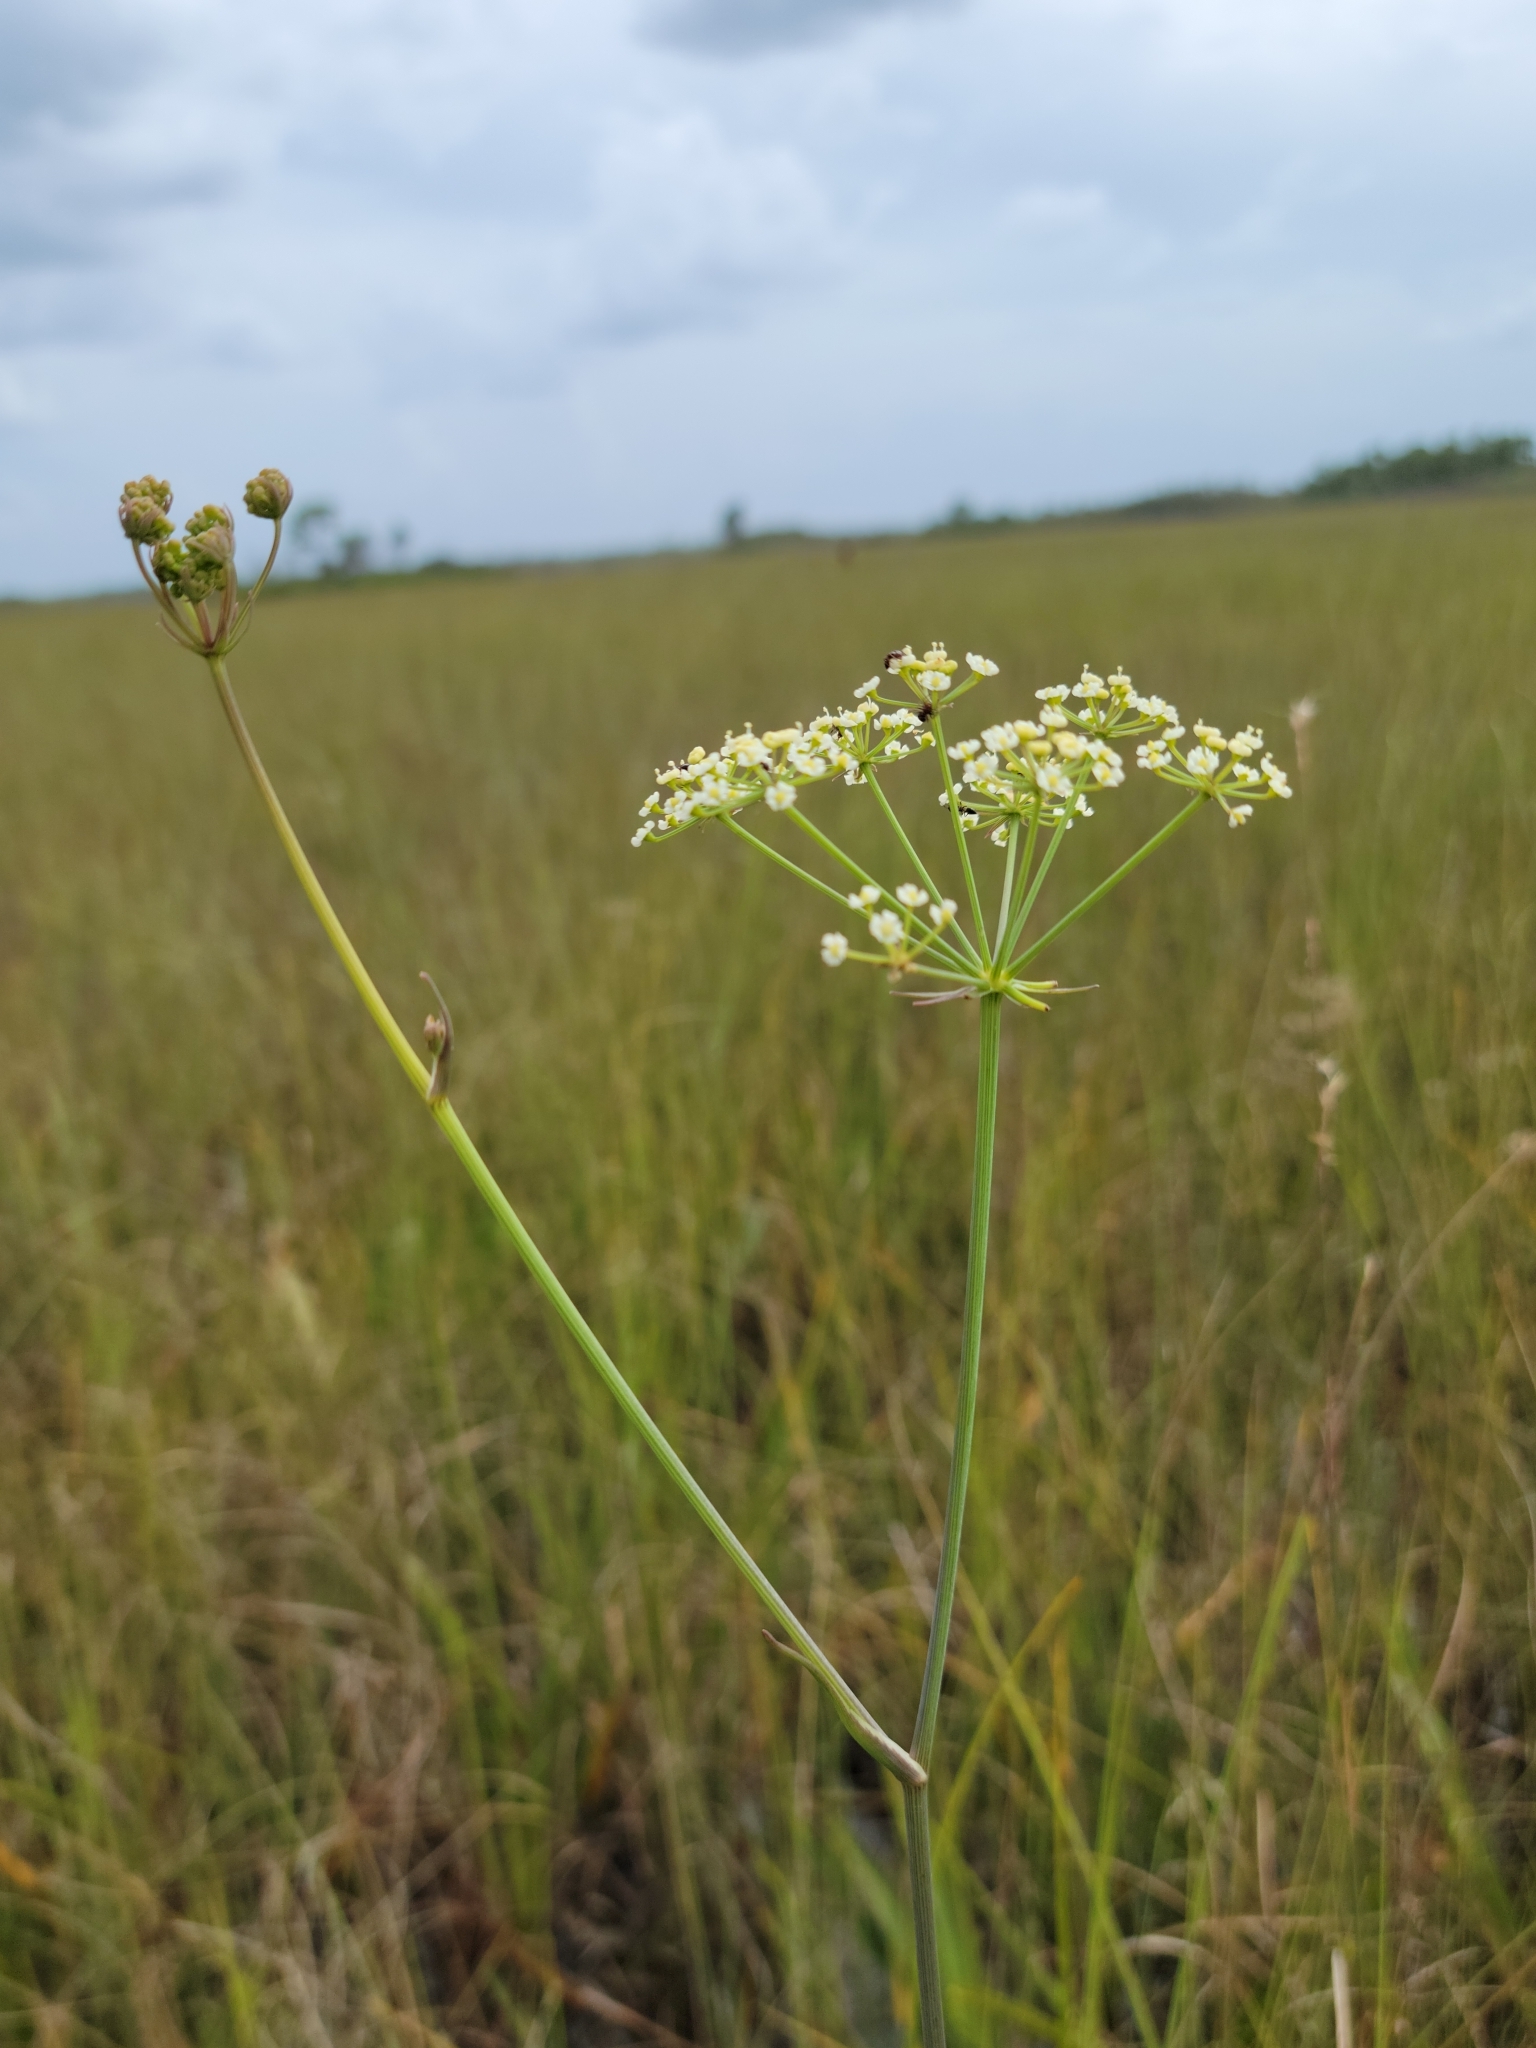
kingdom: Plantae
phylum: Tracheophyta
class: Magnoliopsida
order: Apiales
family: Apiaceae
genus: Tiedemannia
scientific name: Tiedemannia filiformis
